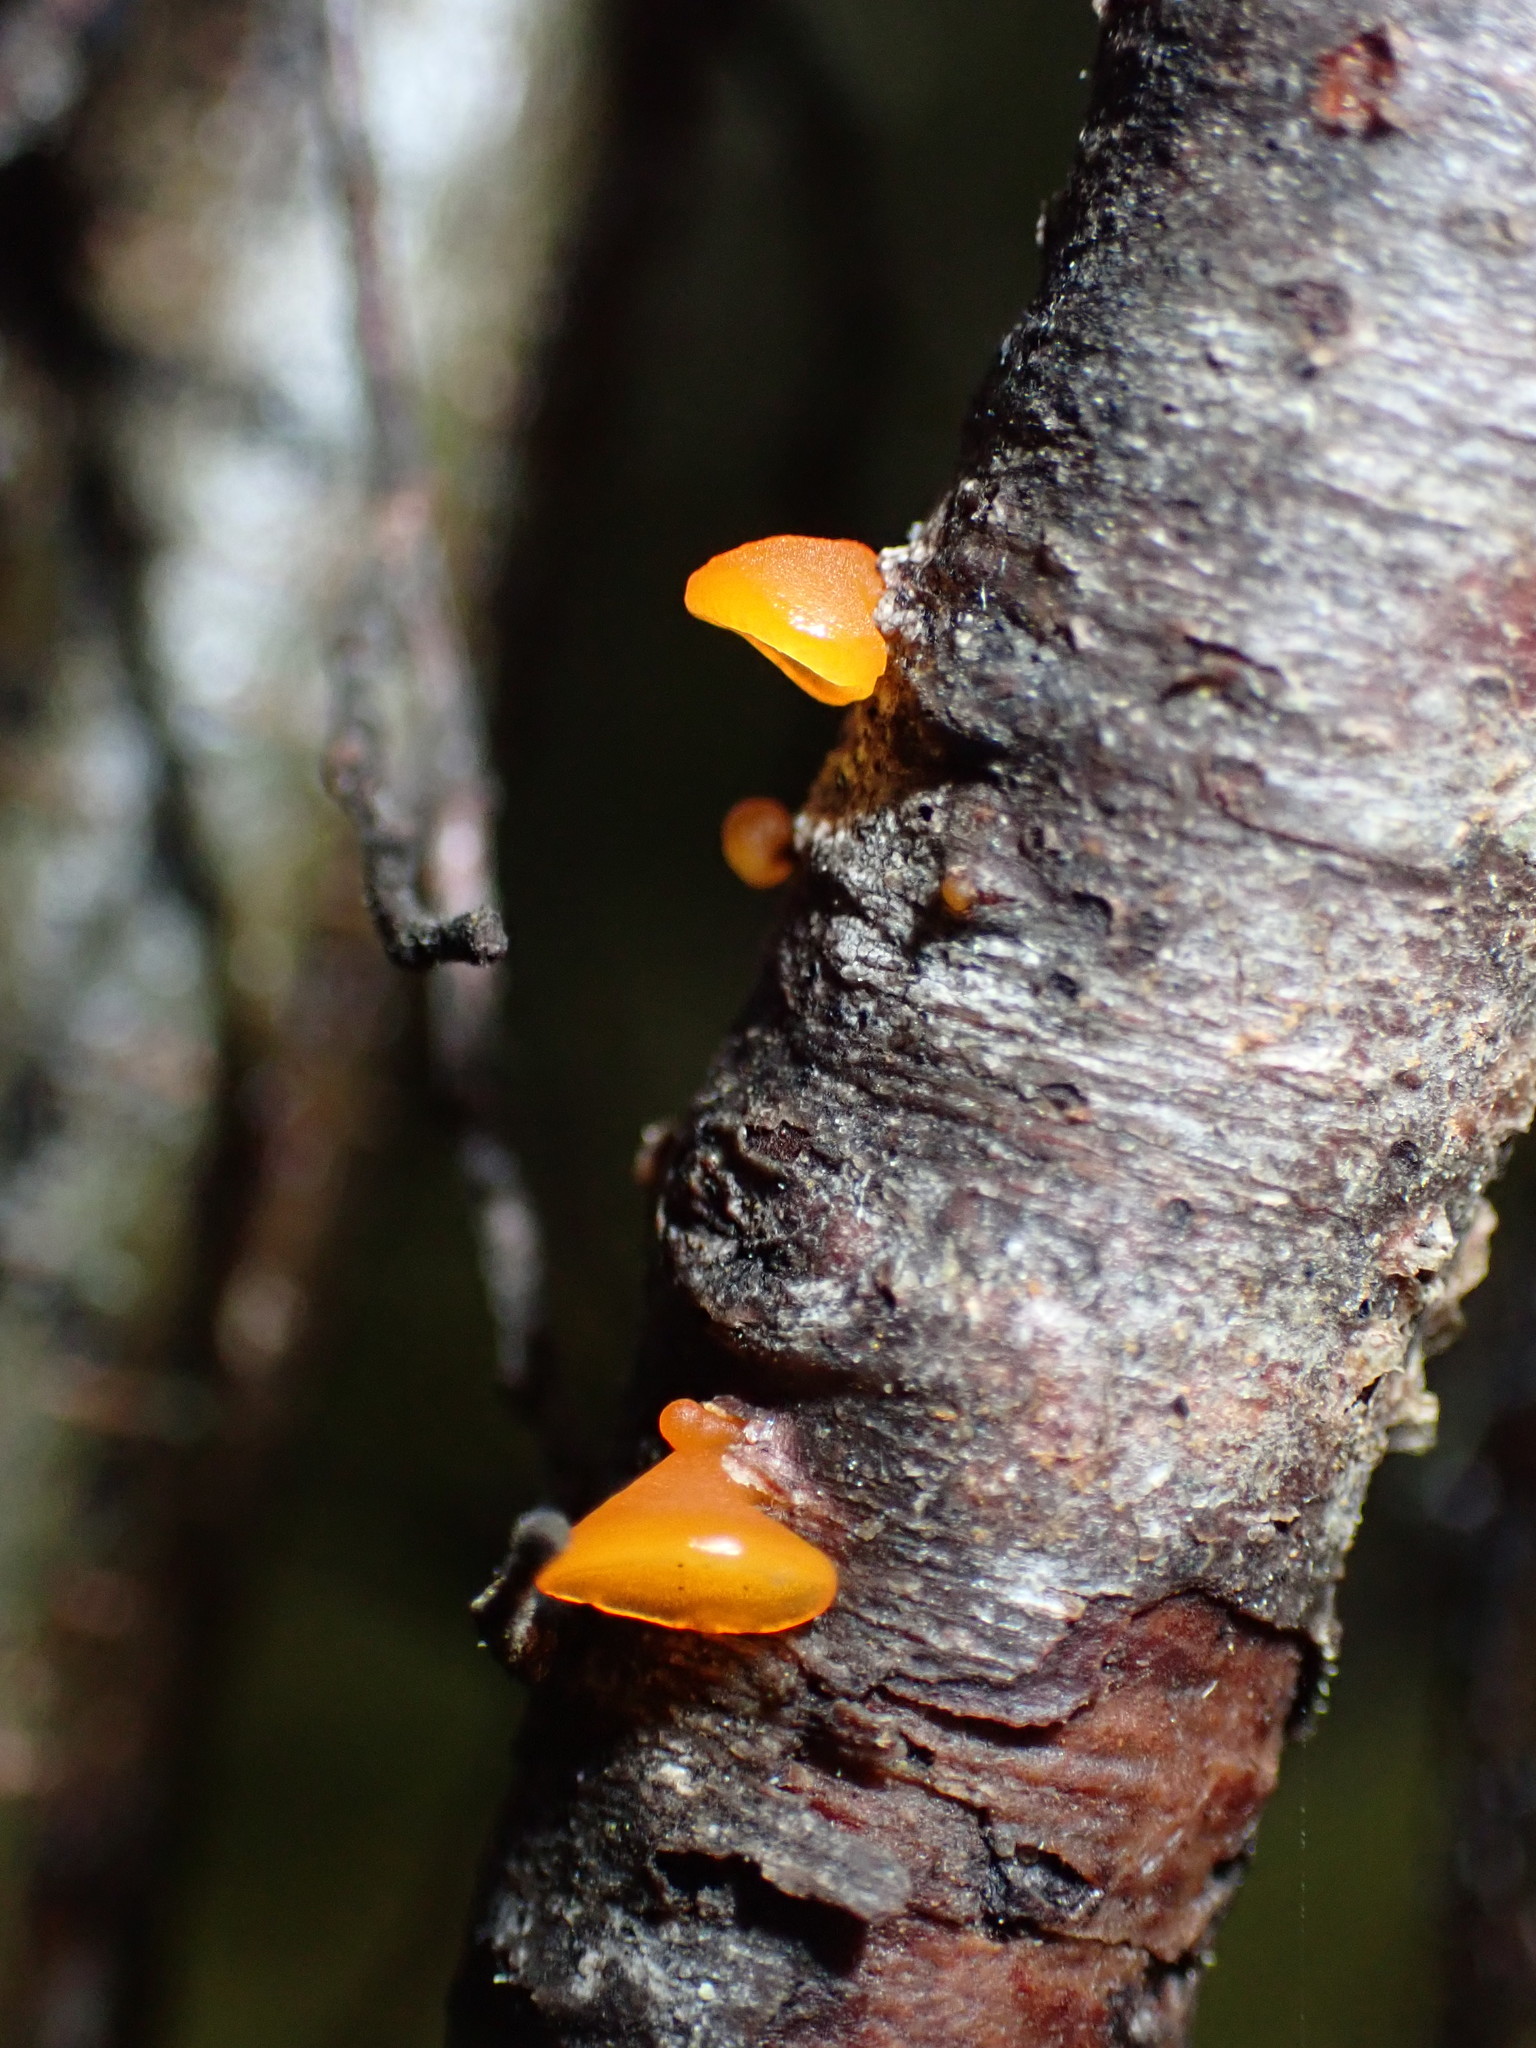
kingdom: Fungi
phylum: Basidiomycota
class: Dacrymycetes
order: Dacrymycetales
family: Dacrymycetaceae
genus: Heterotextus
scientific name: Heterotextus miltinus
